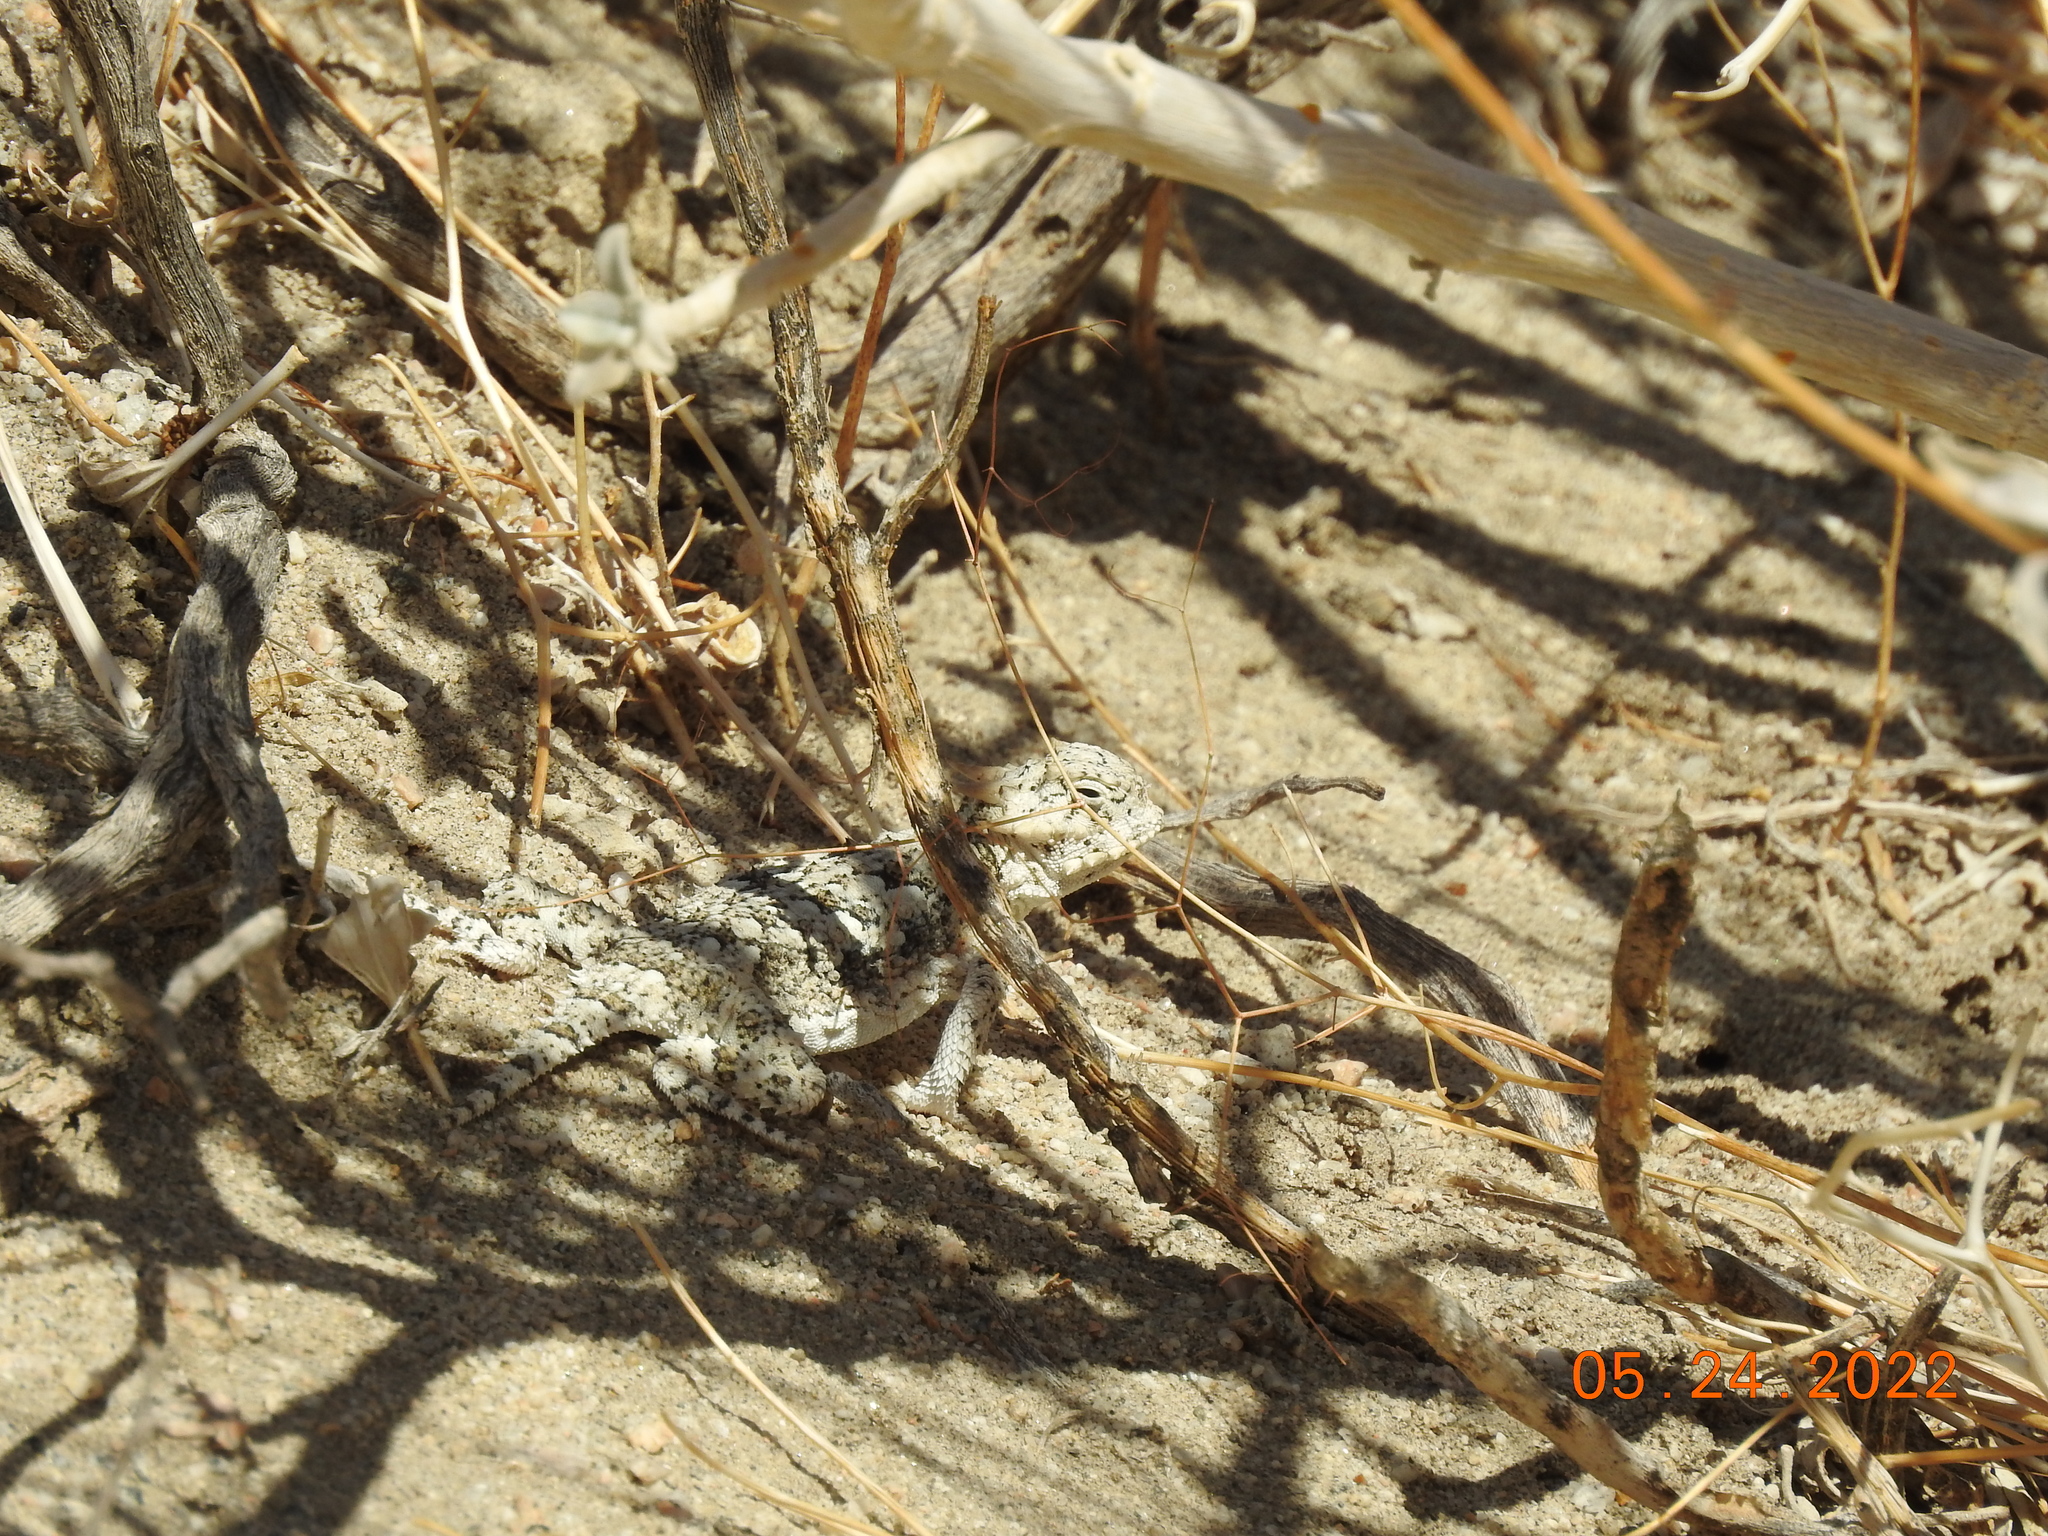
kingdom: Animalia
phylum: Chordata
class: Squamata
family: Phrynosomatidae
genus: Phrynosoma
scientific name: Phrynosoma platyrhinos
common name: Desert horned lizard
